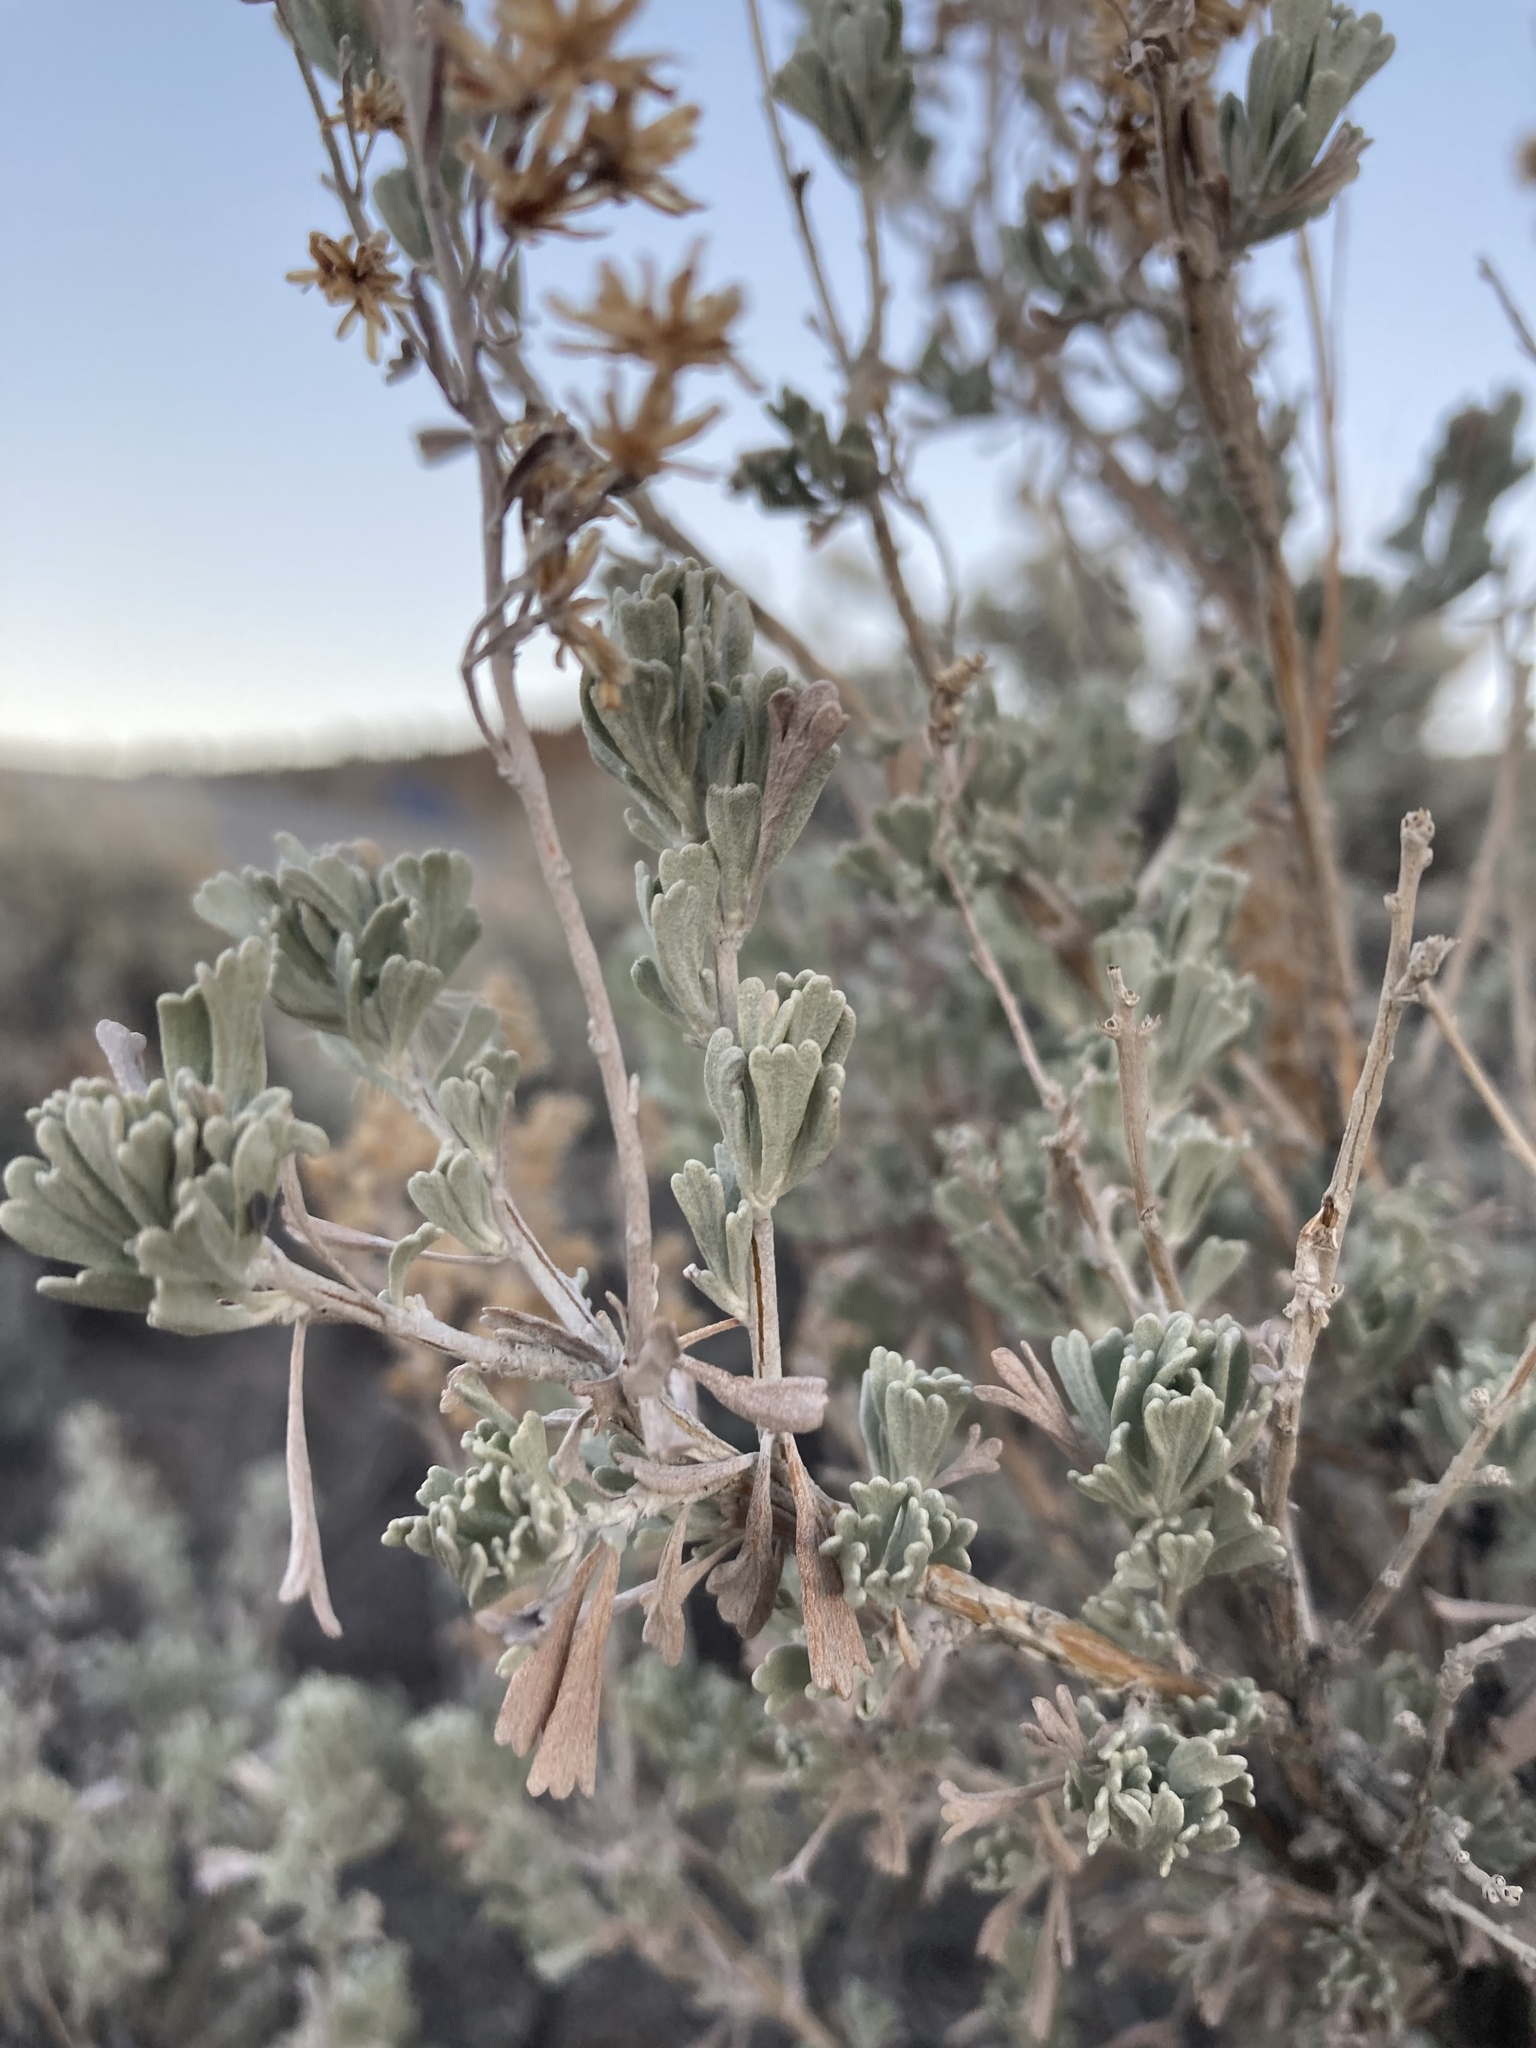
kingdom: Plantae
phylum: Tracheophyta
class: Magnoliopsida
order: Asterales
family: Asteraceae
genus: Artemisia
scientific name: Artemisia tridentata
